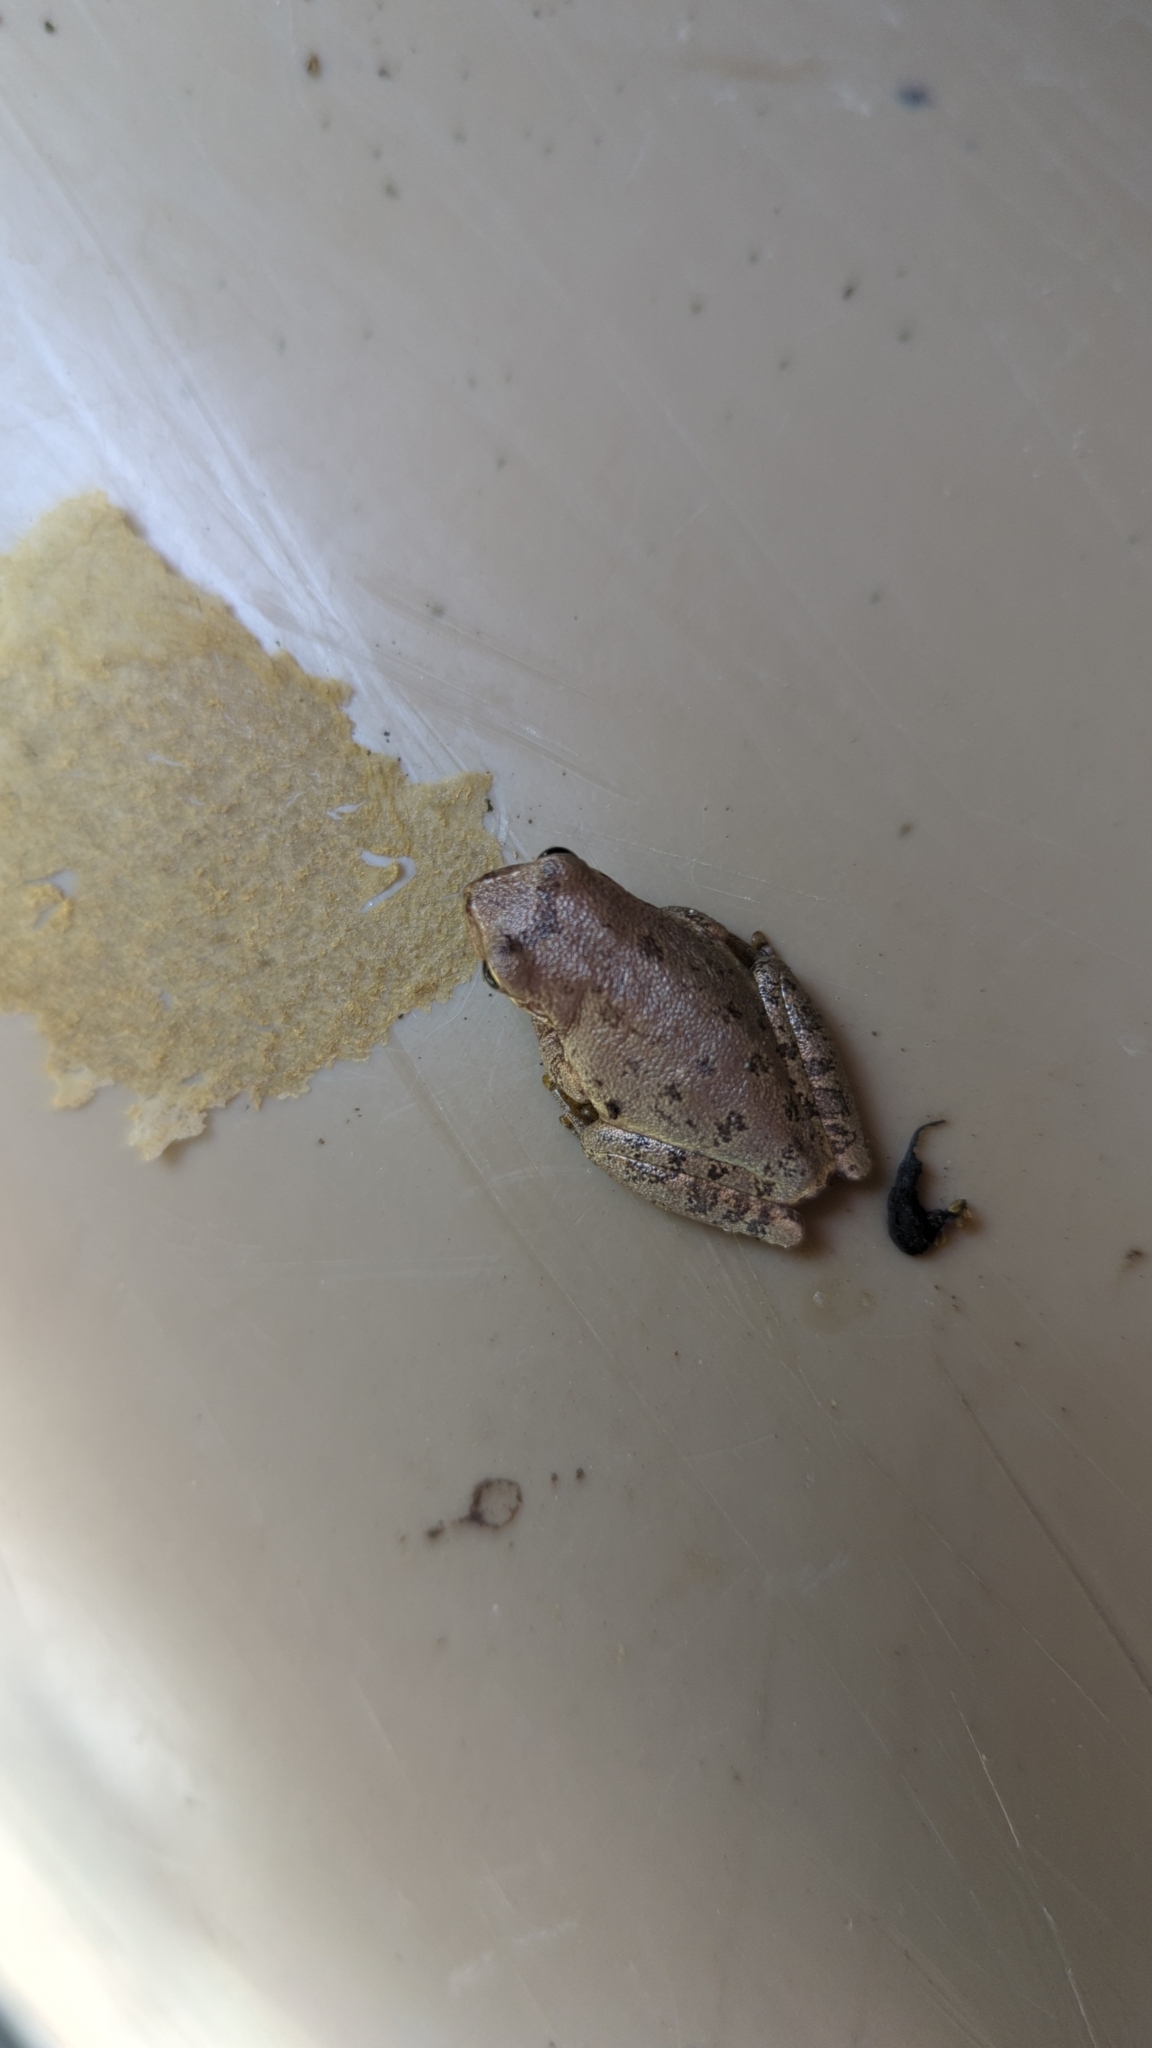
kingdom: Animalia
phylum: Chordata
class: Amphibia
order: Anura
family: Hylidae
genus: Dryophytes
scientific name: Dryophytes squirellus
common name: Squirrel treefrog
